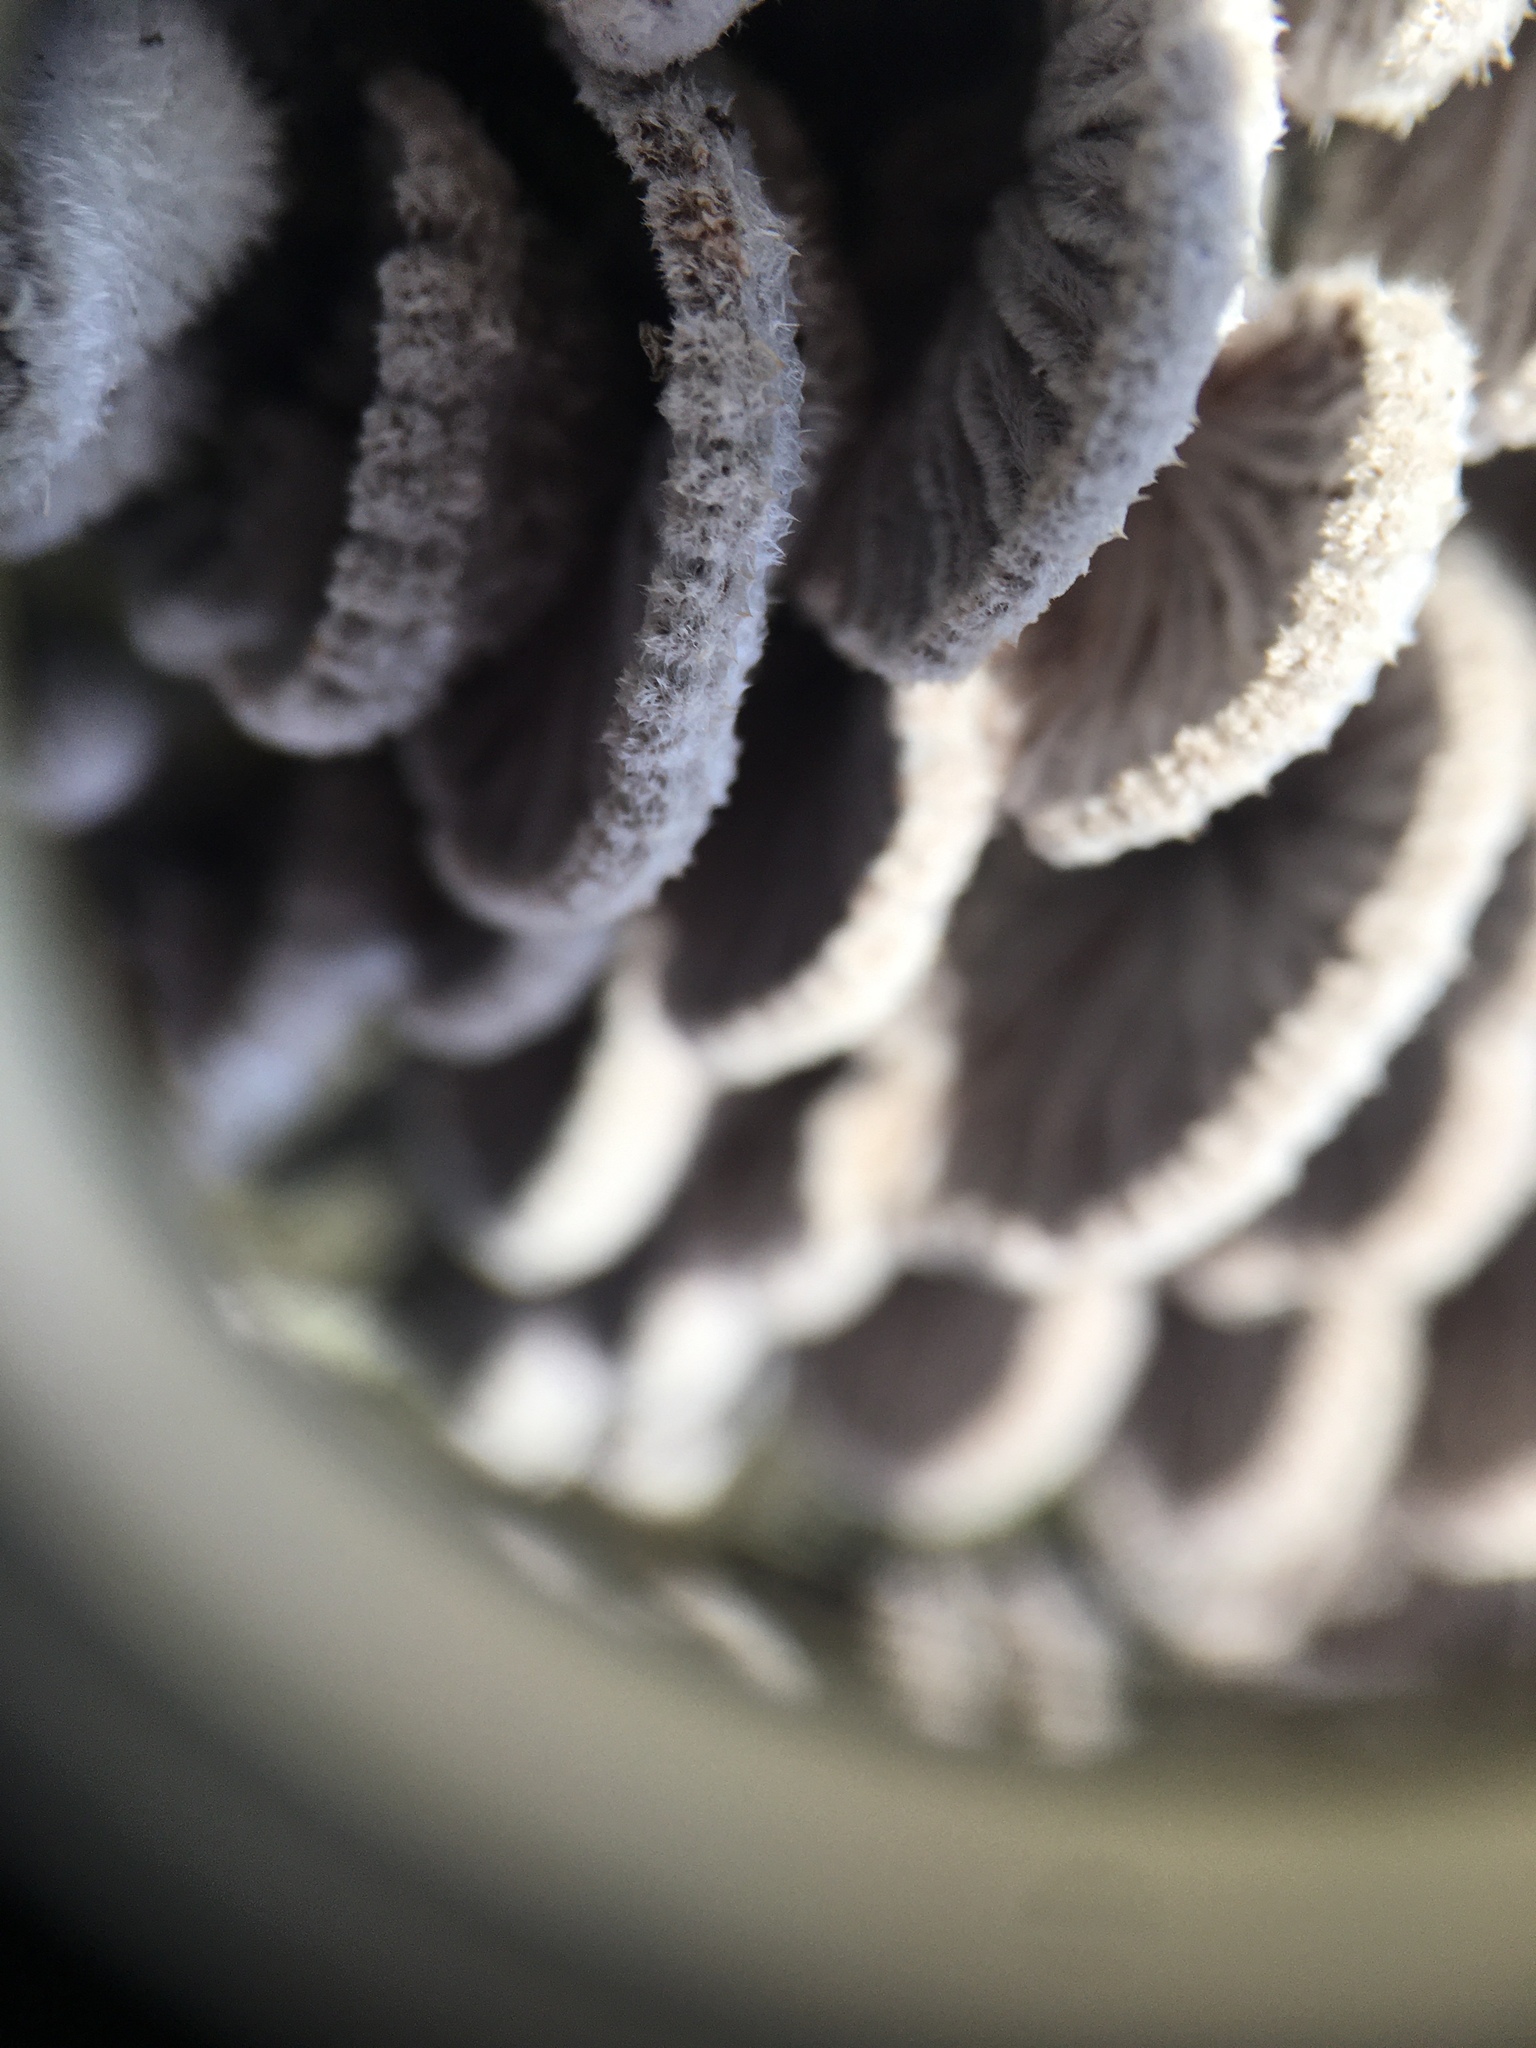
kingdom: Fungi
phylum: Basidiomycota
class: Agaricomycetes
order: Agaricales
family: Schizophyllaceae
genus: Schizophyllum
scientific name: Schizophyllum commune
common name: Common porecrust
